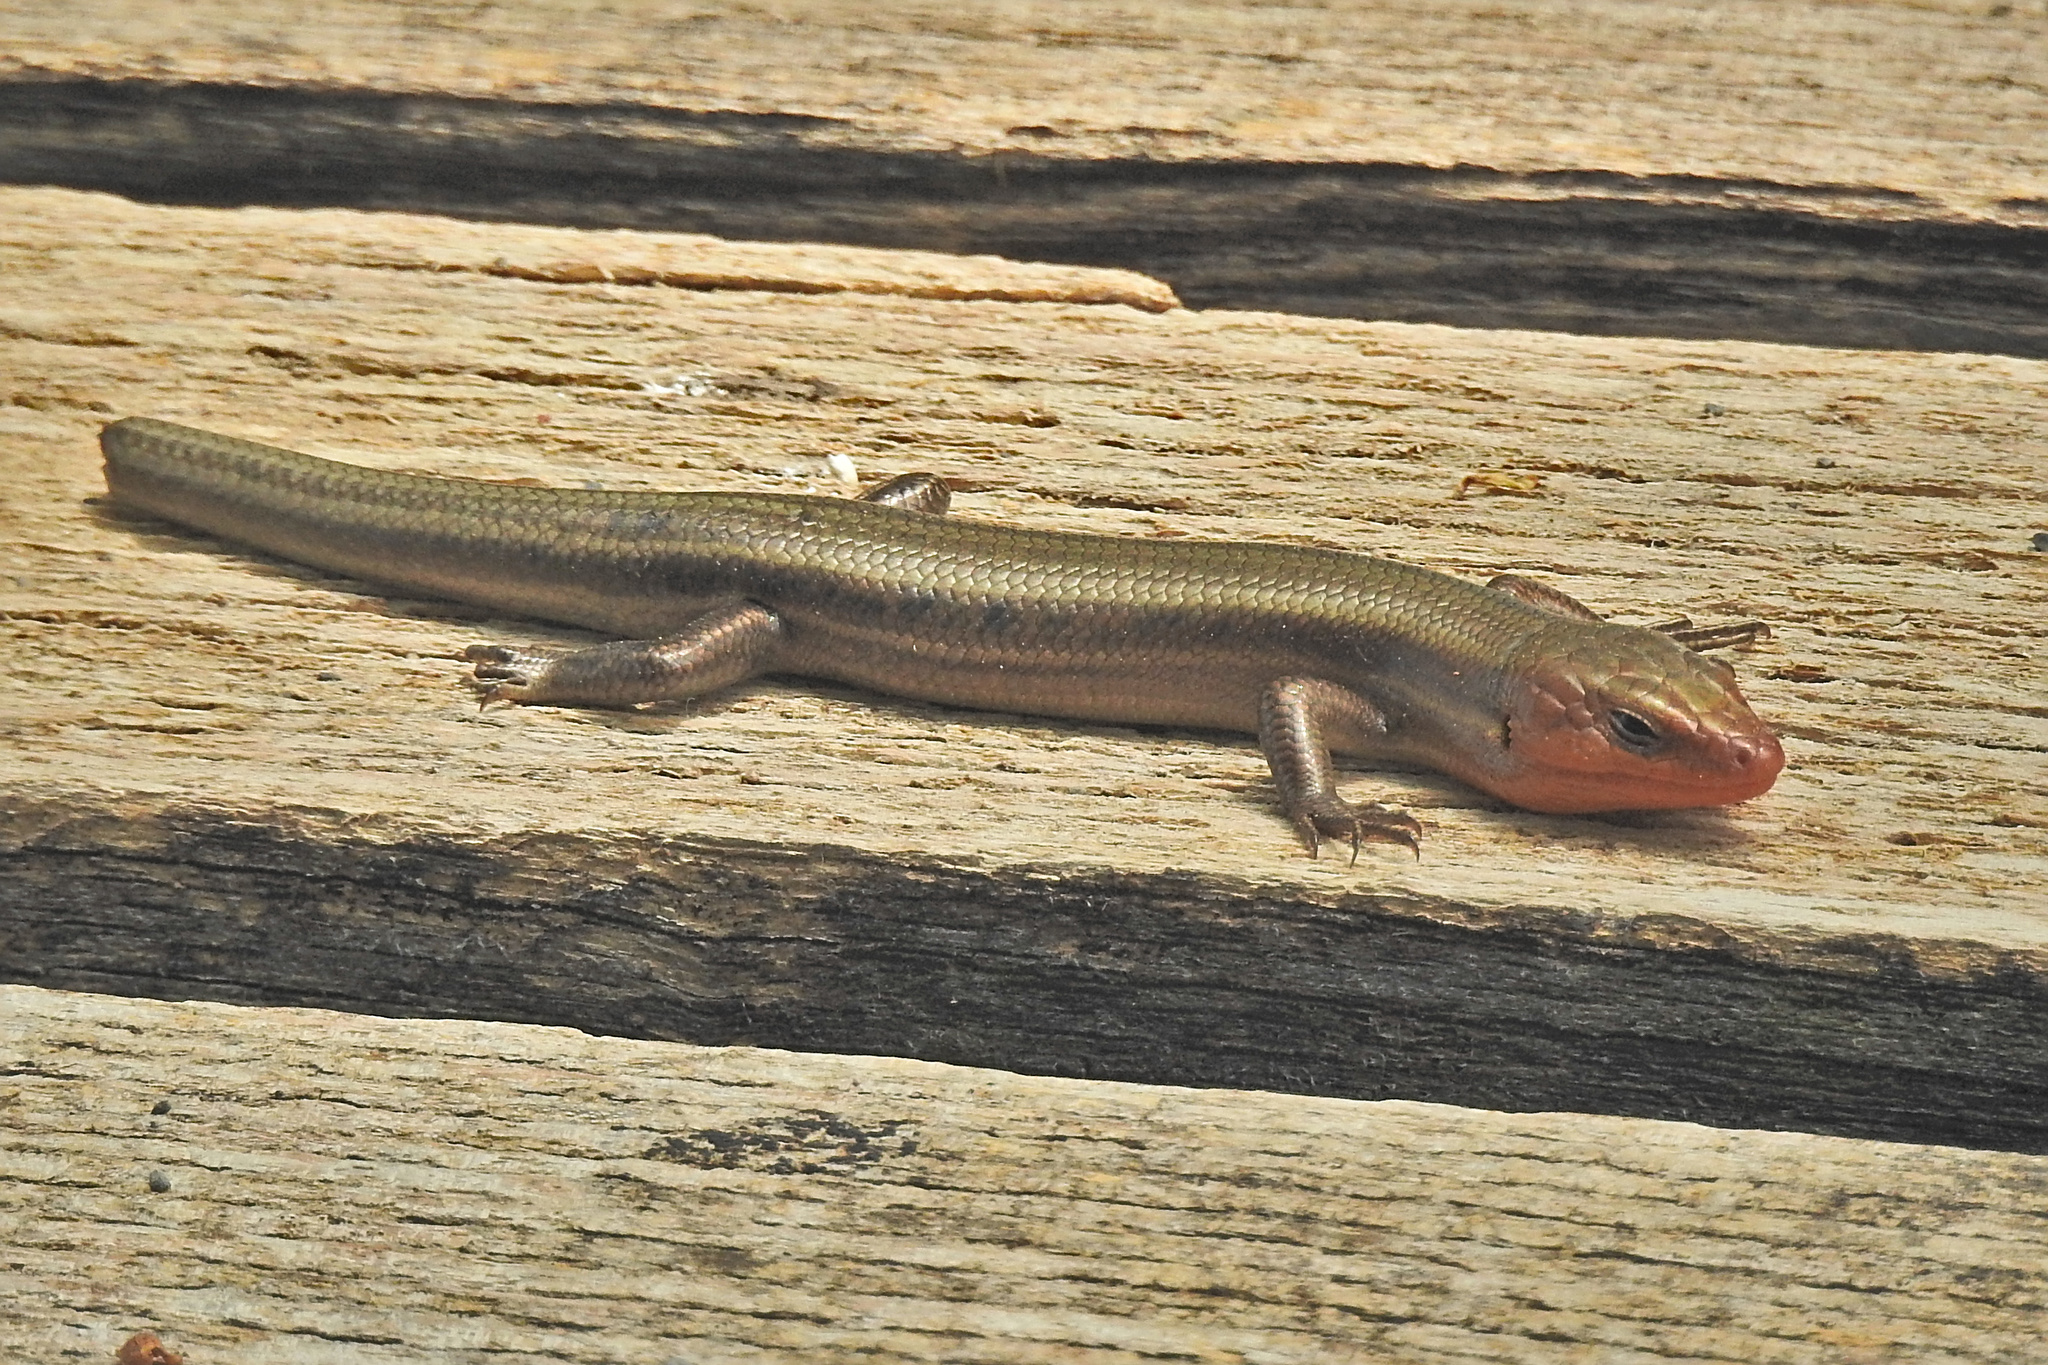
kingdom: Animalia
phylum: Chordata
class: Squamata
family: Scincidae
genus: Plestiodon
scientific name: Plestiodon fasciatus
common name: Five-lined skink
